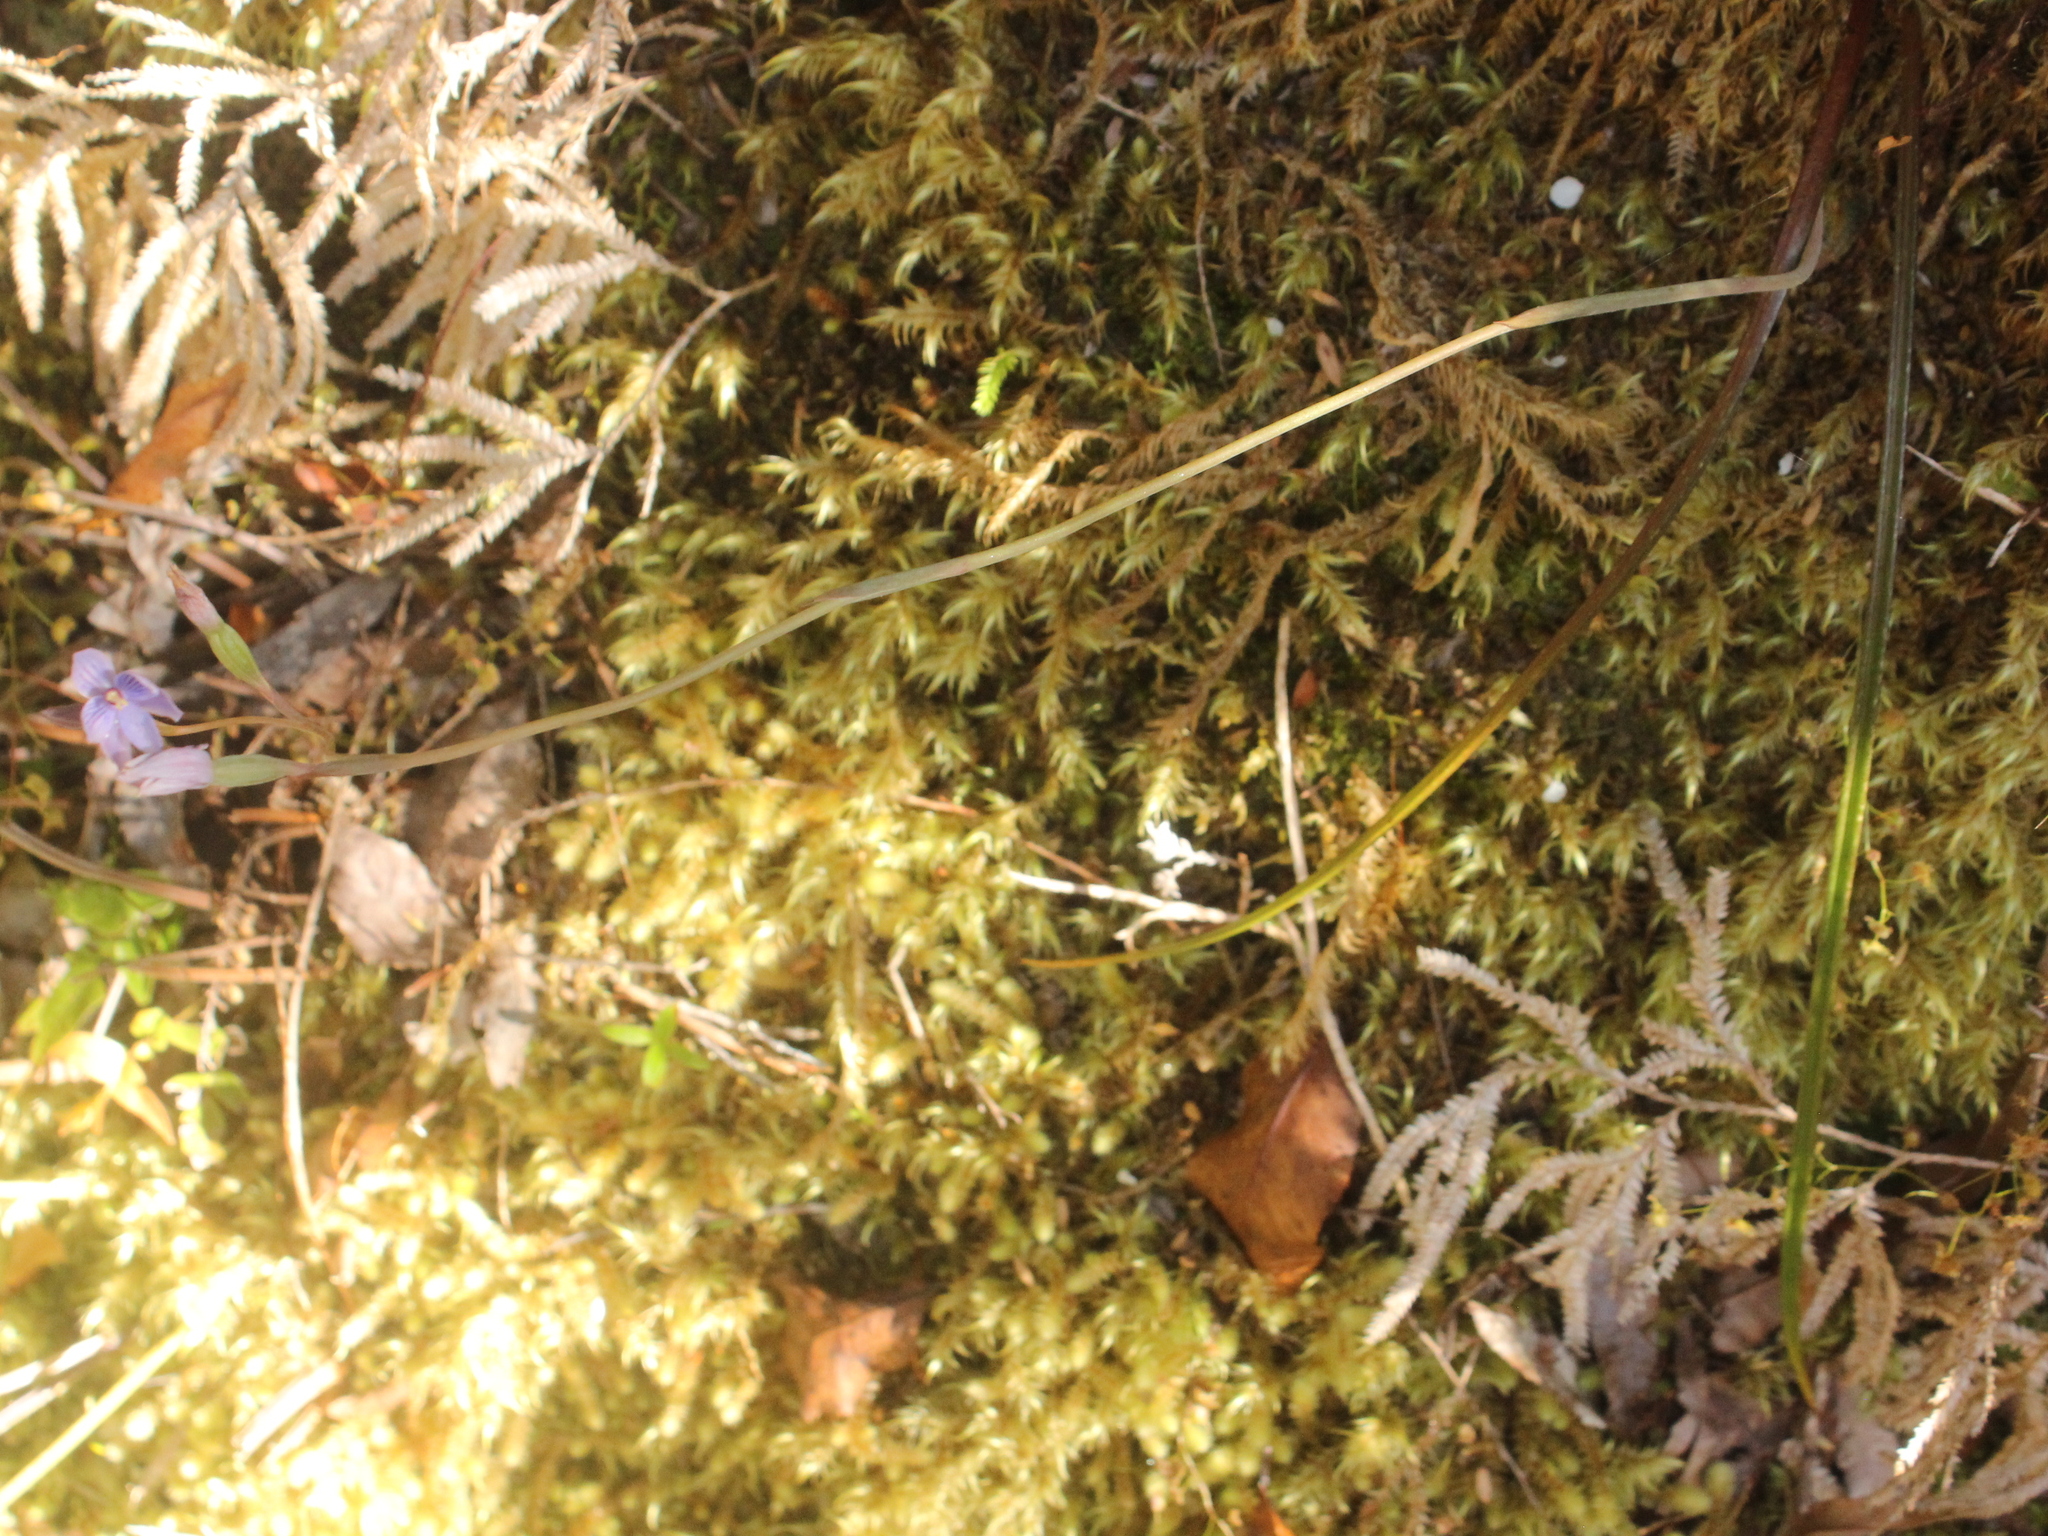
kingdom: Plantae
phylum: Tracheophyta
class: Liliopsida
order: Asparagales
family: Orchidaceae
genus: Thelymitra
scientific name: Thelymitra pulchella
